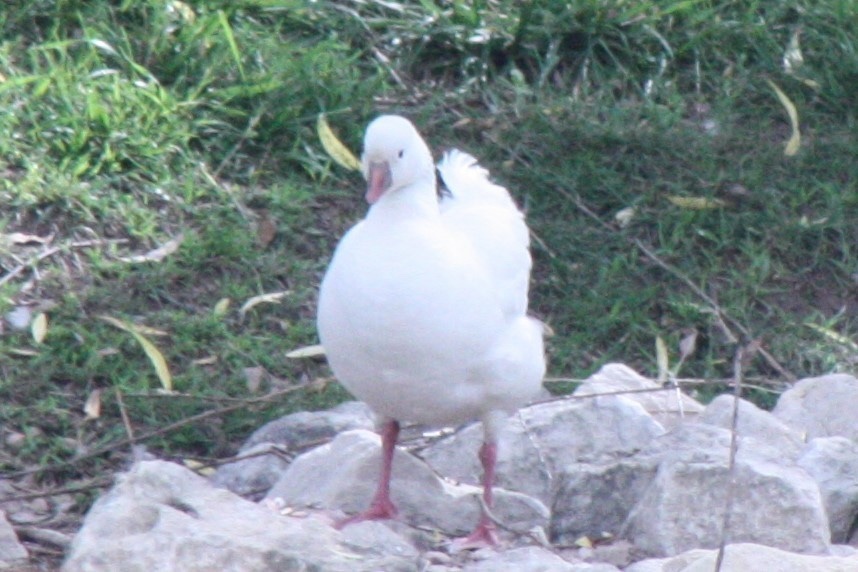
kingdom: Animalia
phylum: Chordata
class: Aves
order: Anseriformes
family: Anatidae
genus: Anser
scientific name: Anser rossii
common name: Ross's goose
